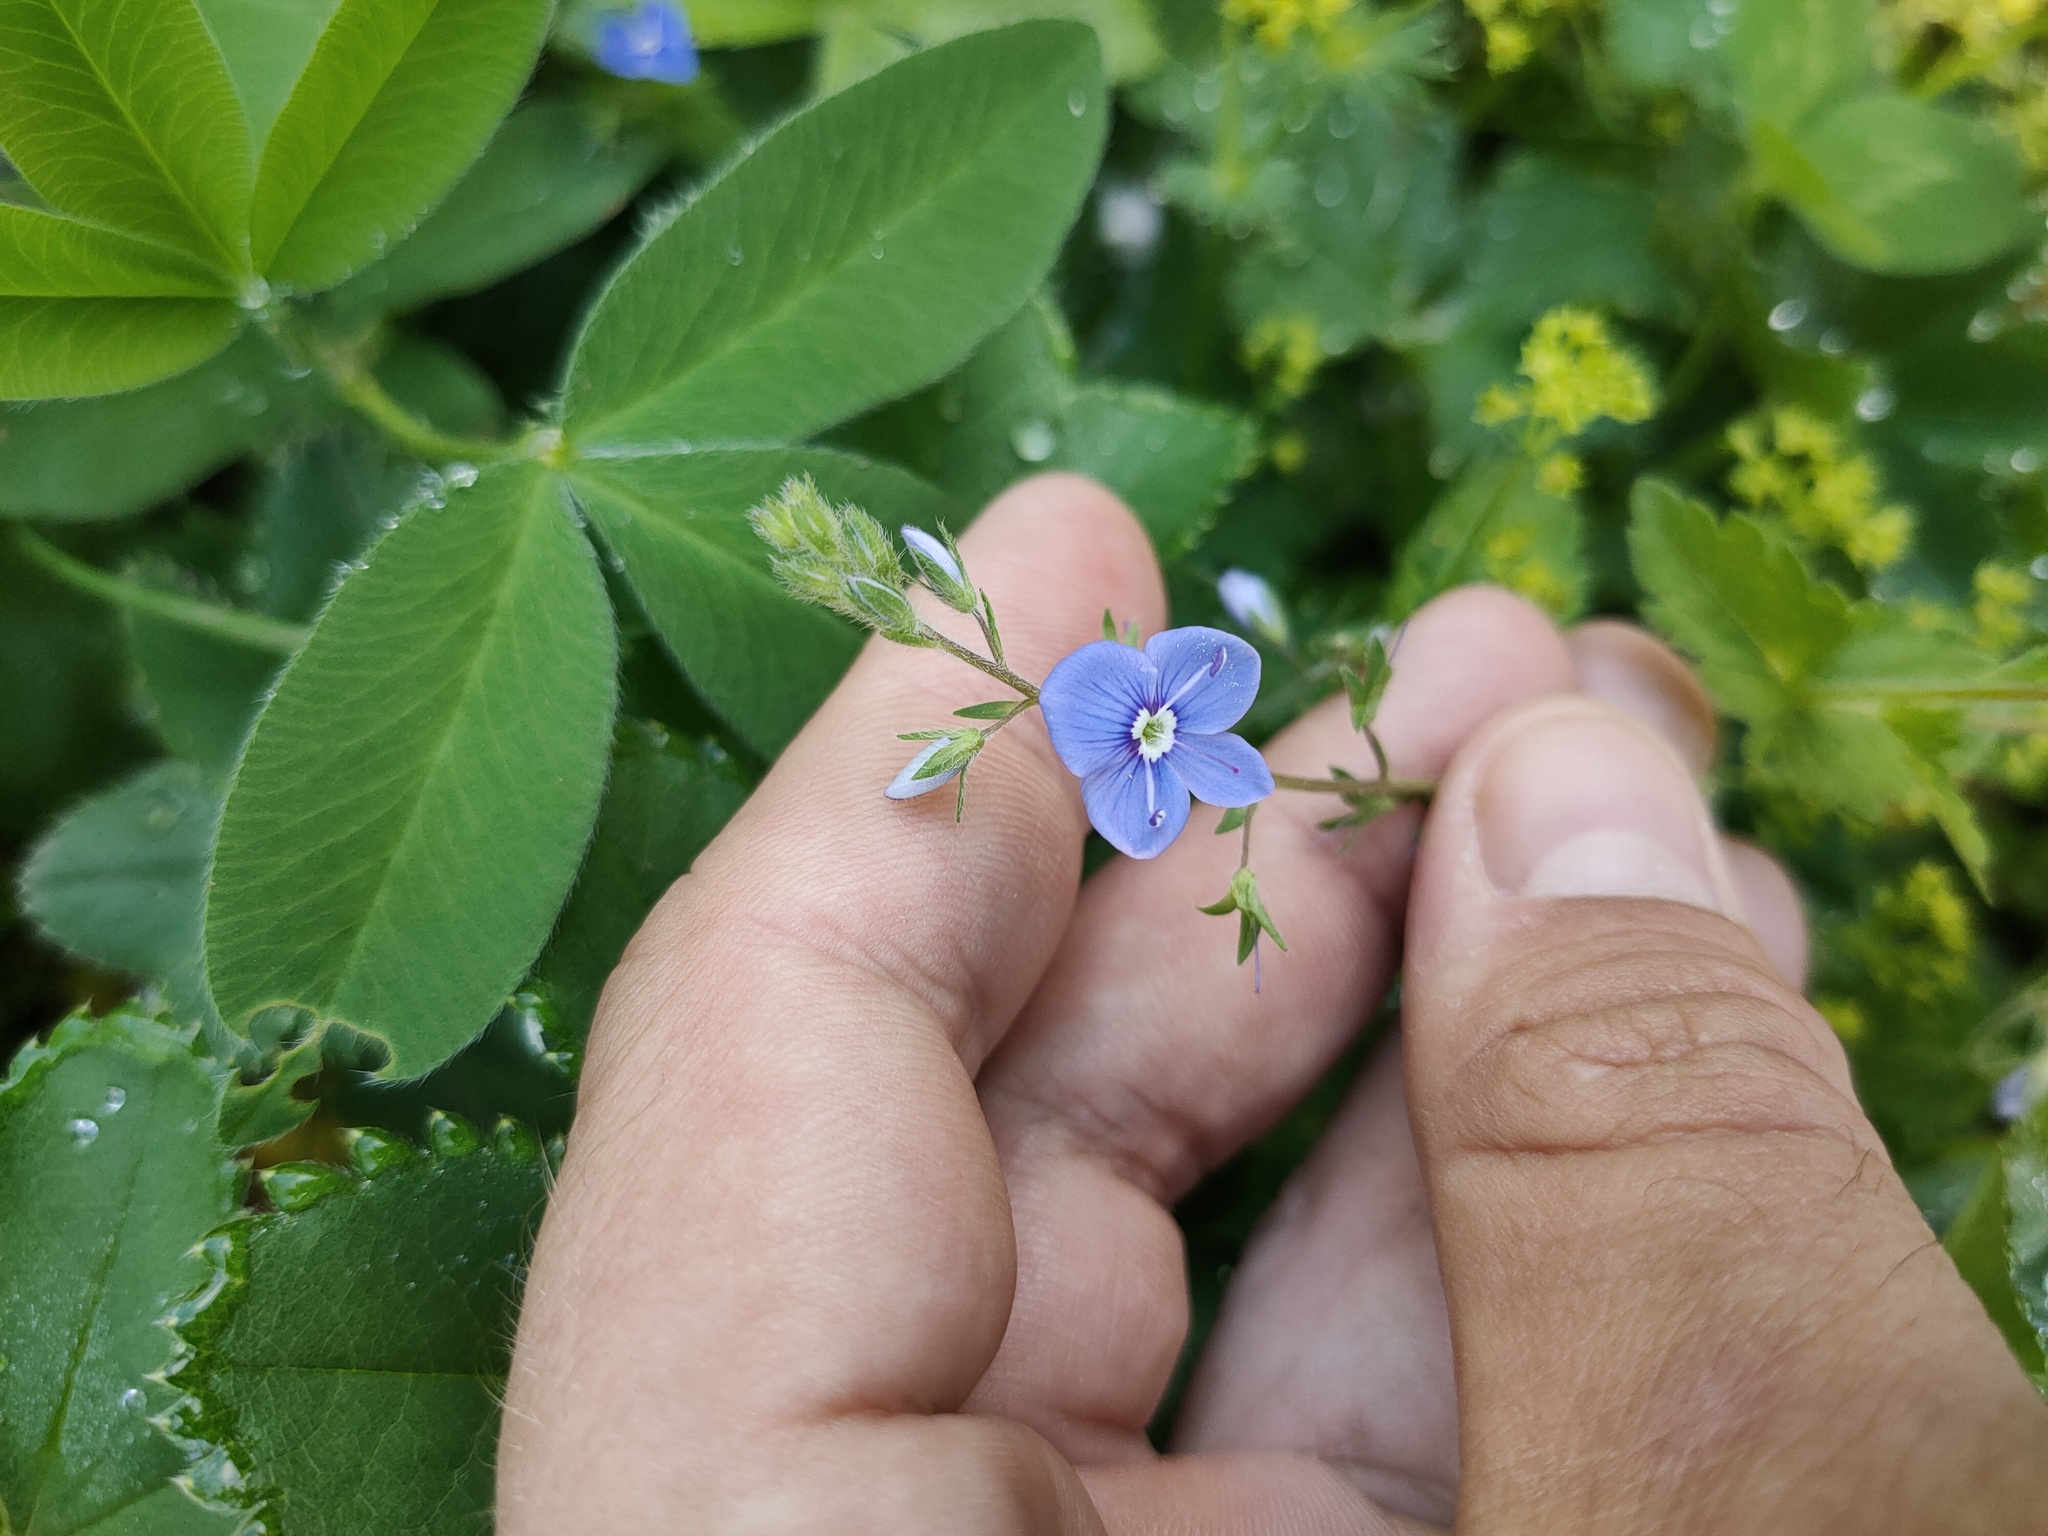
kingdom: Plantae
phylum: Tracheophyta
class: Magnoliopsida
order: Lamiales
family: Plantaginaceae
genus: Veronica
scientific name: Veronica chamaedrys
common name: Germander speedwell
